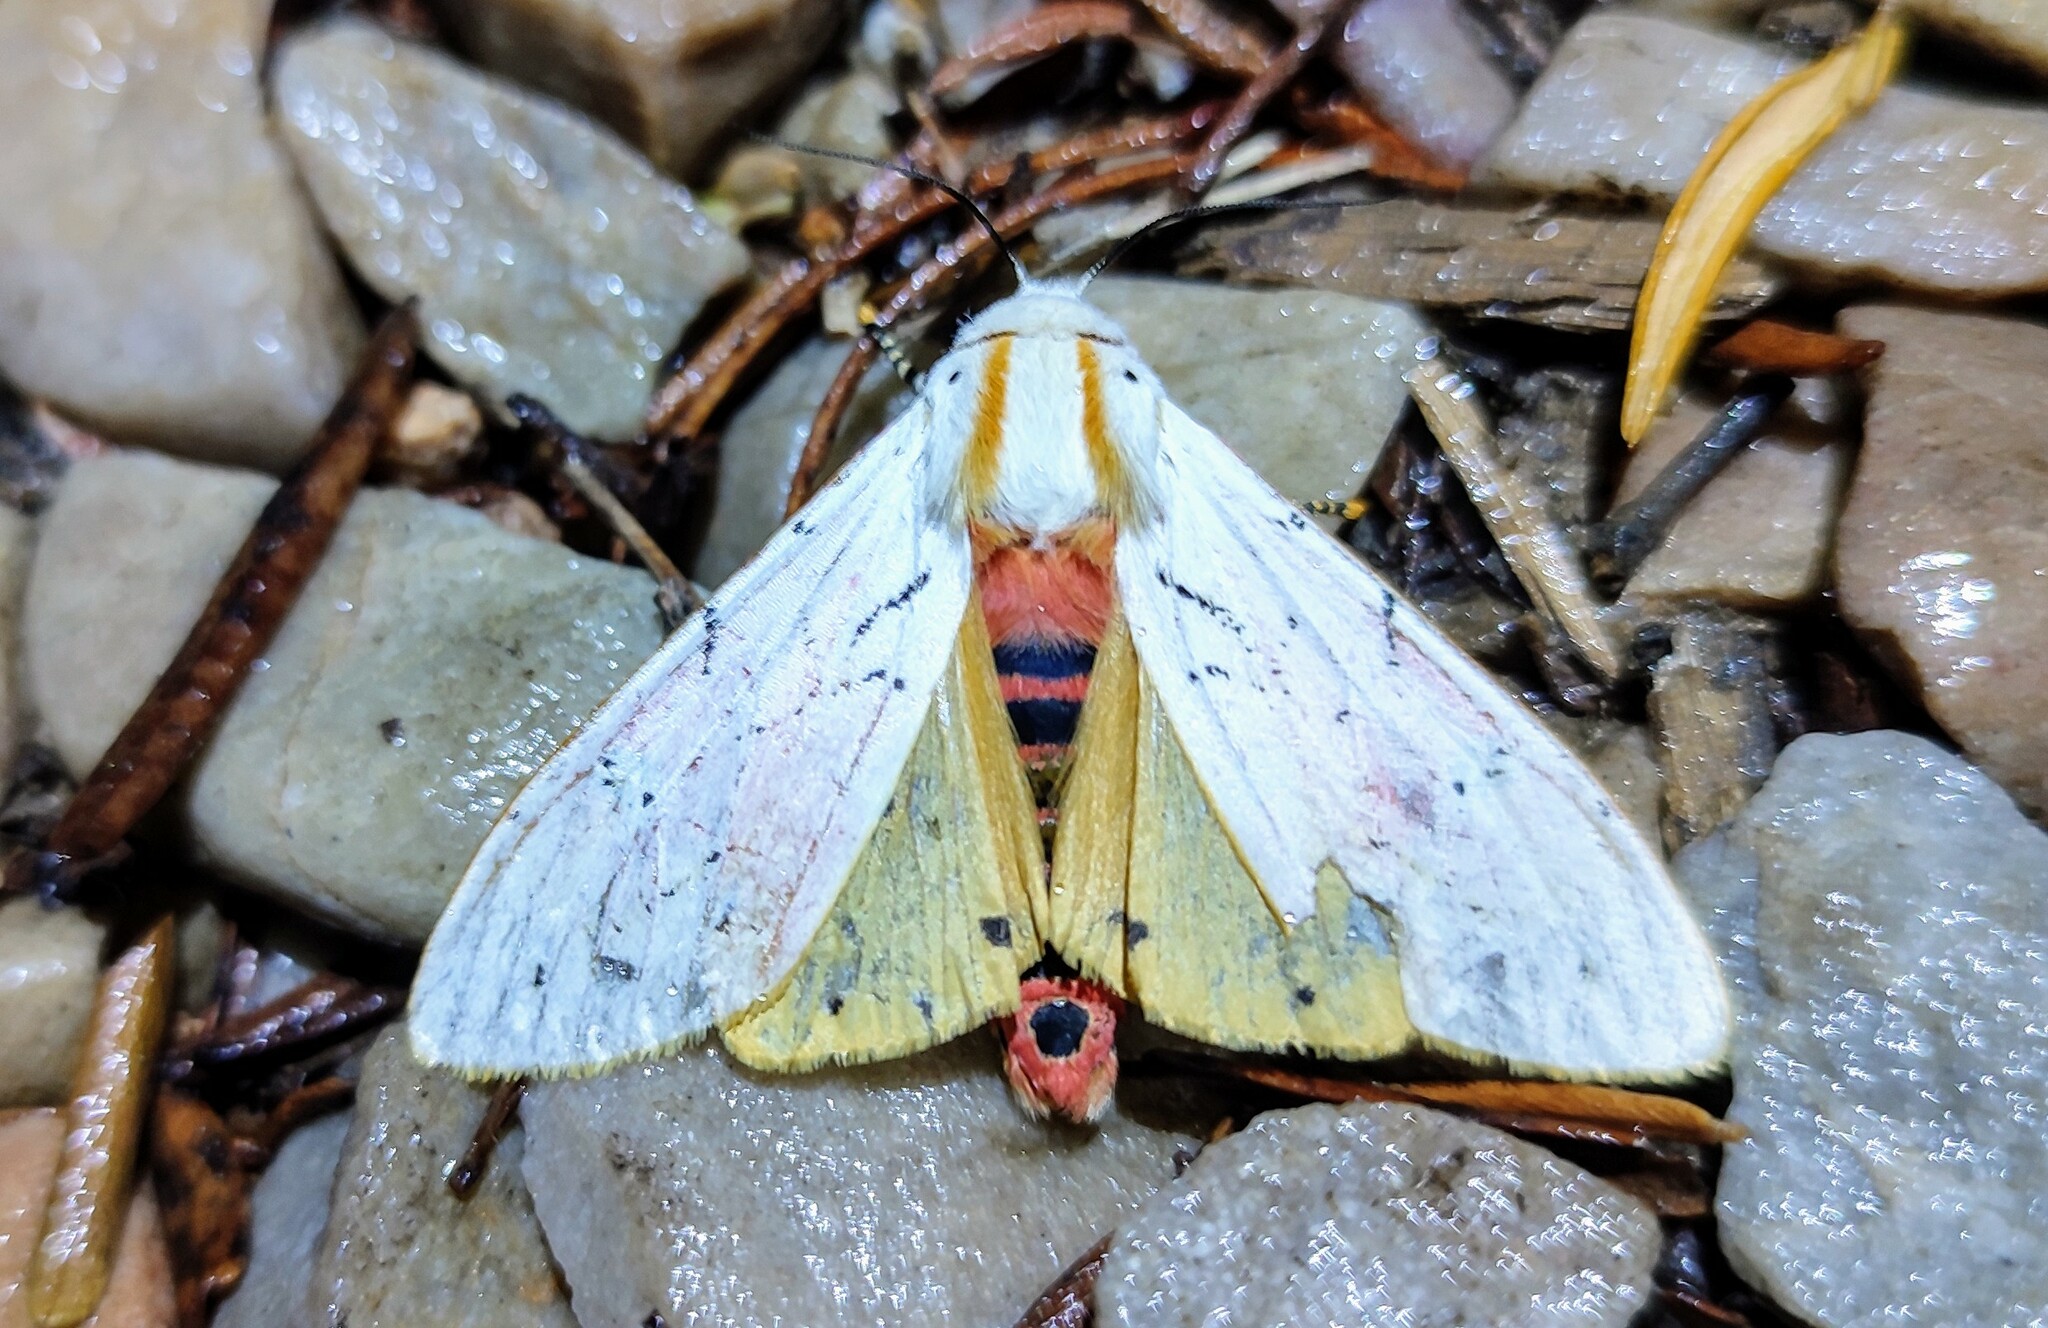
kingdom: Animalia
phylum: Arthropoda
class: Insecta
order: Lepidoptera
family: Erebidae
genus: Rhodogastria
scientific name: Rhodogastria amasis
